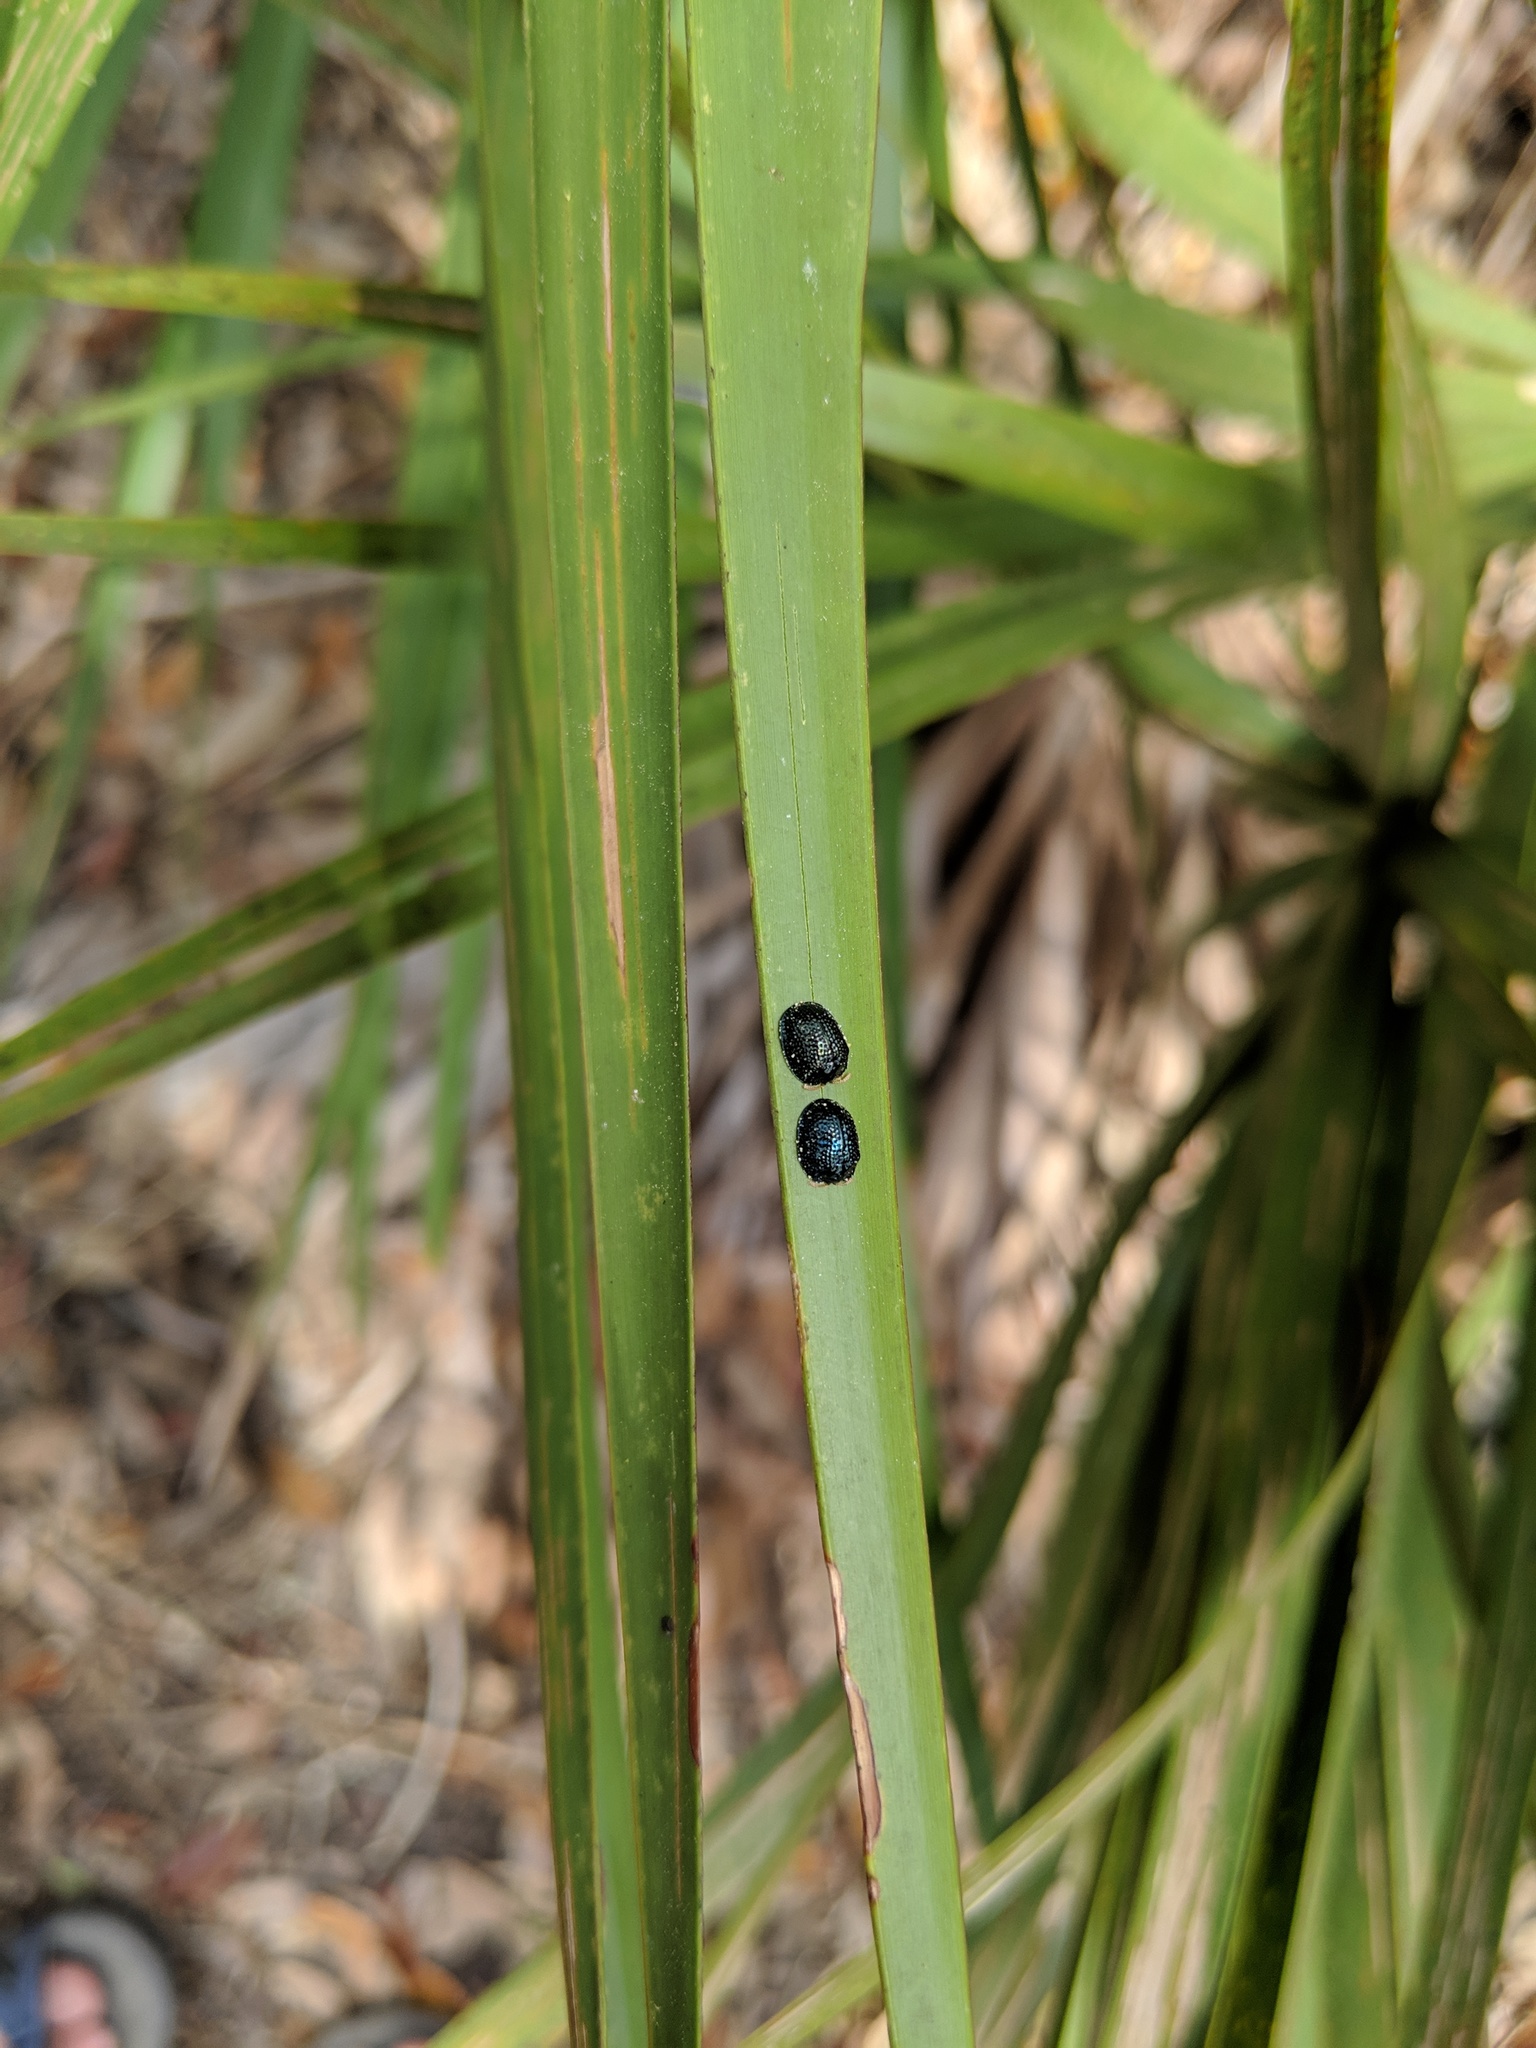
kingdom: Animalia
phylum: Arthropoda
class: Insecta
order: Coleoptera
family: Chrysomelidae
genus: Hemisphaerota
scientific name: Hemisphaerota cyanea
